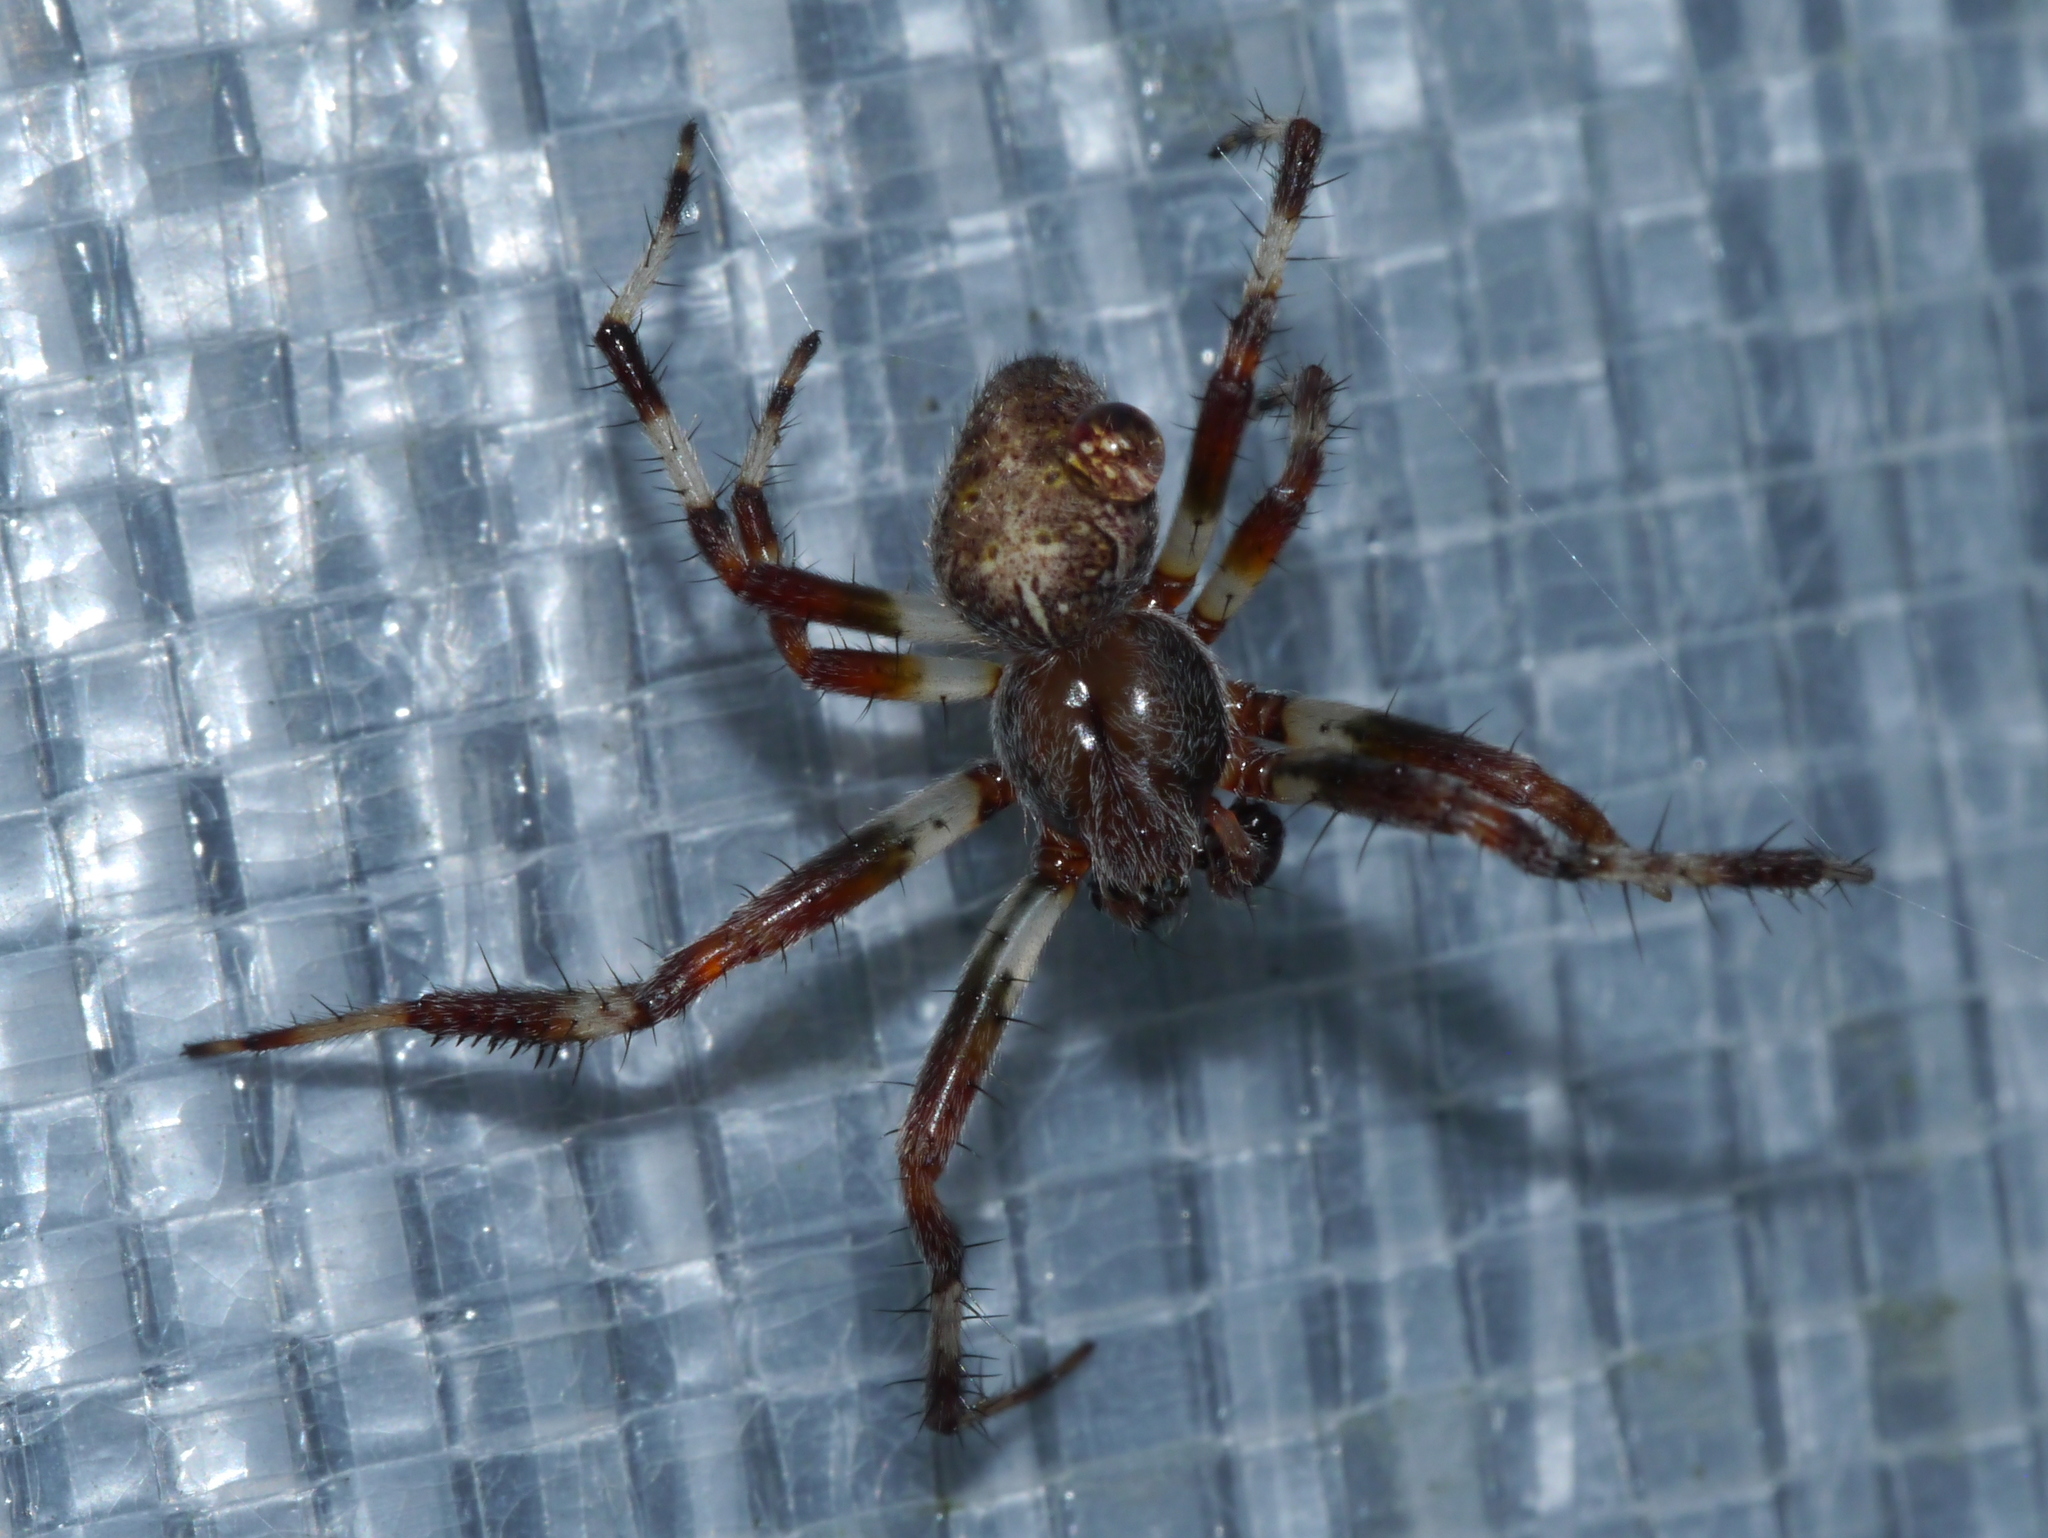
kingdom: Animalia
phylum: Arthropoda
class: Arachnida
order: Araneae
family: Araneidae
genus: Araneus
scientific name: Araneus marmoreus
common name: Marbled orbweaver
